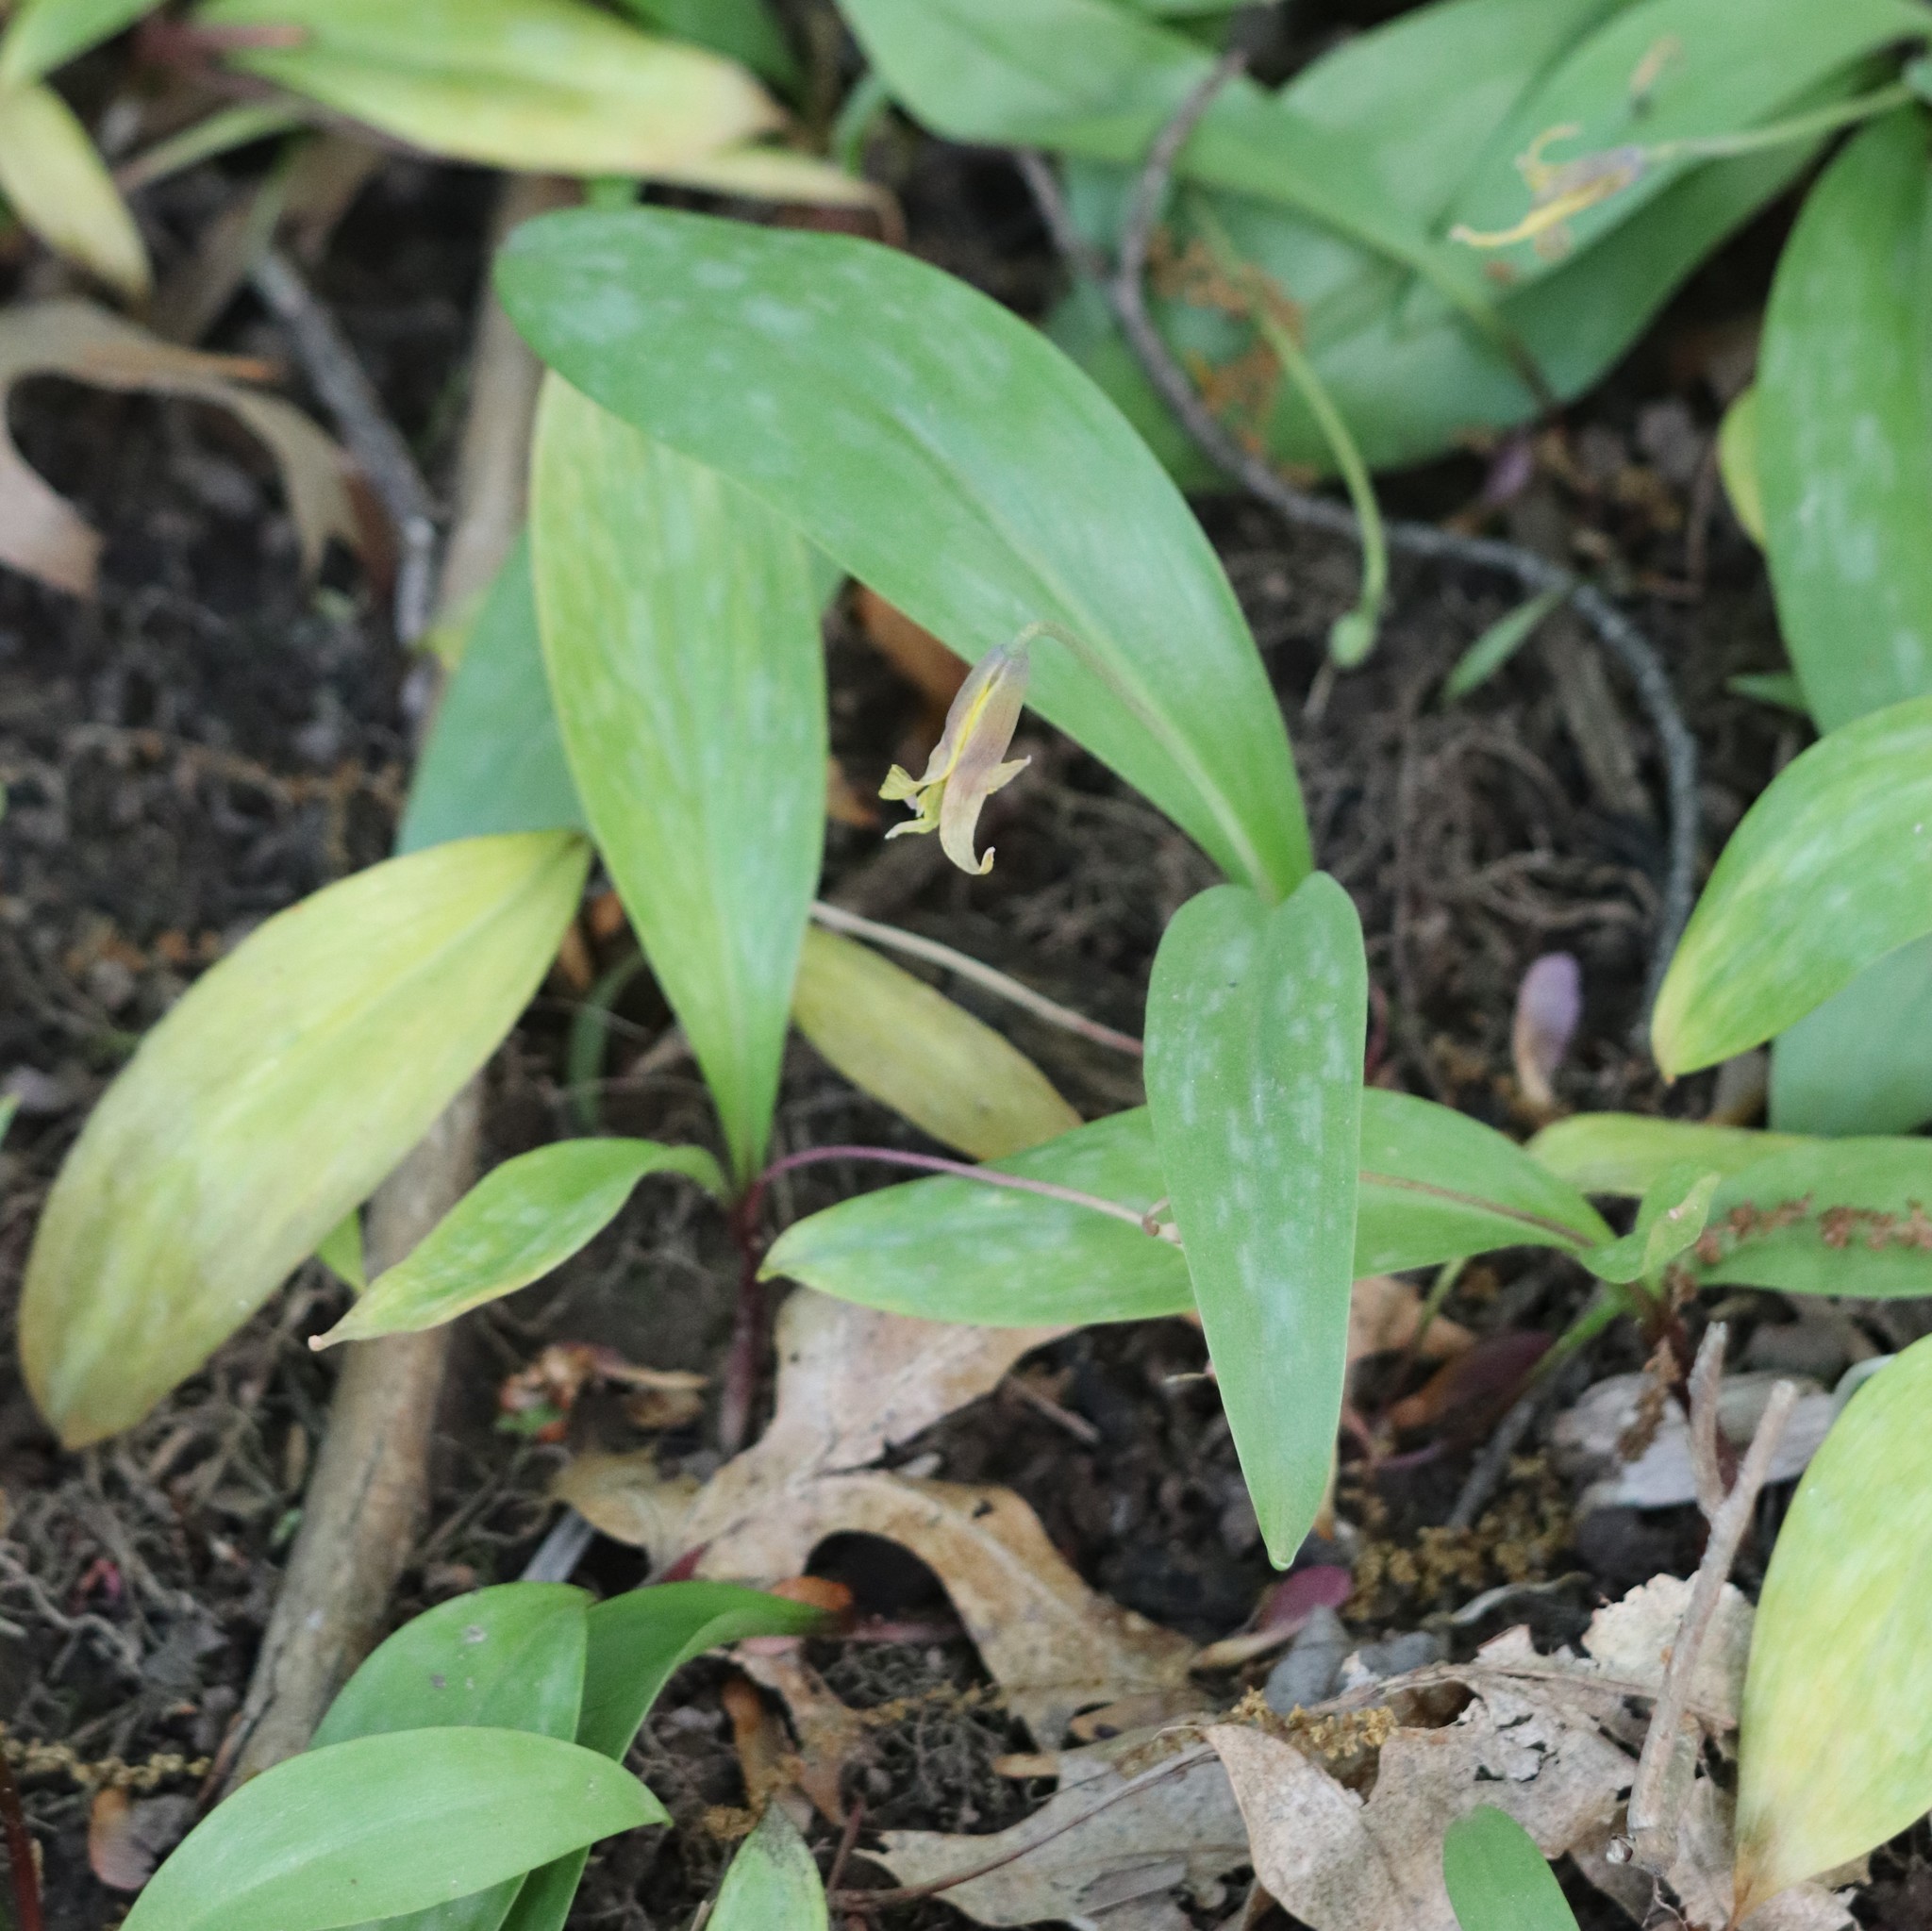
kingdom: Plantae
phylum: Tracheophyta
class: Liliopsida
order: Liliales
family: Liliaceae
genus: Erythronium
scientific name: Erythronium americanum
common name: Yellow adder's-tongue
